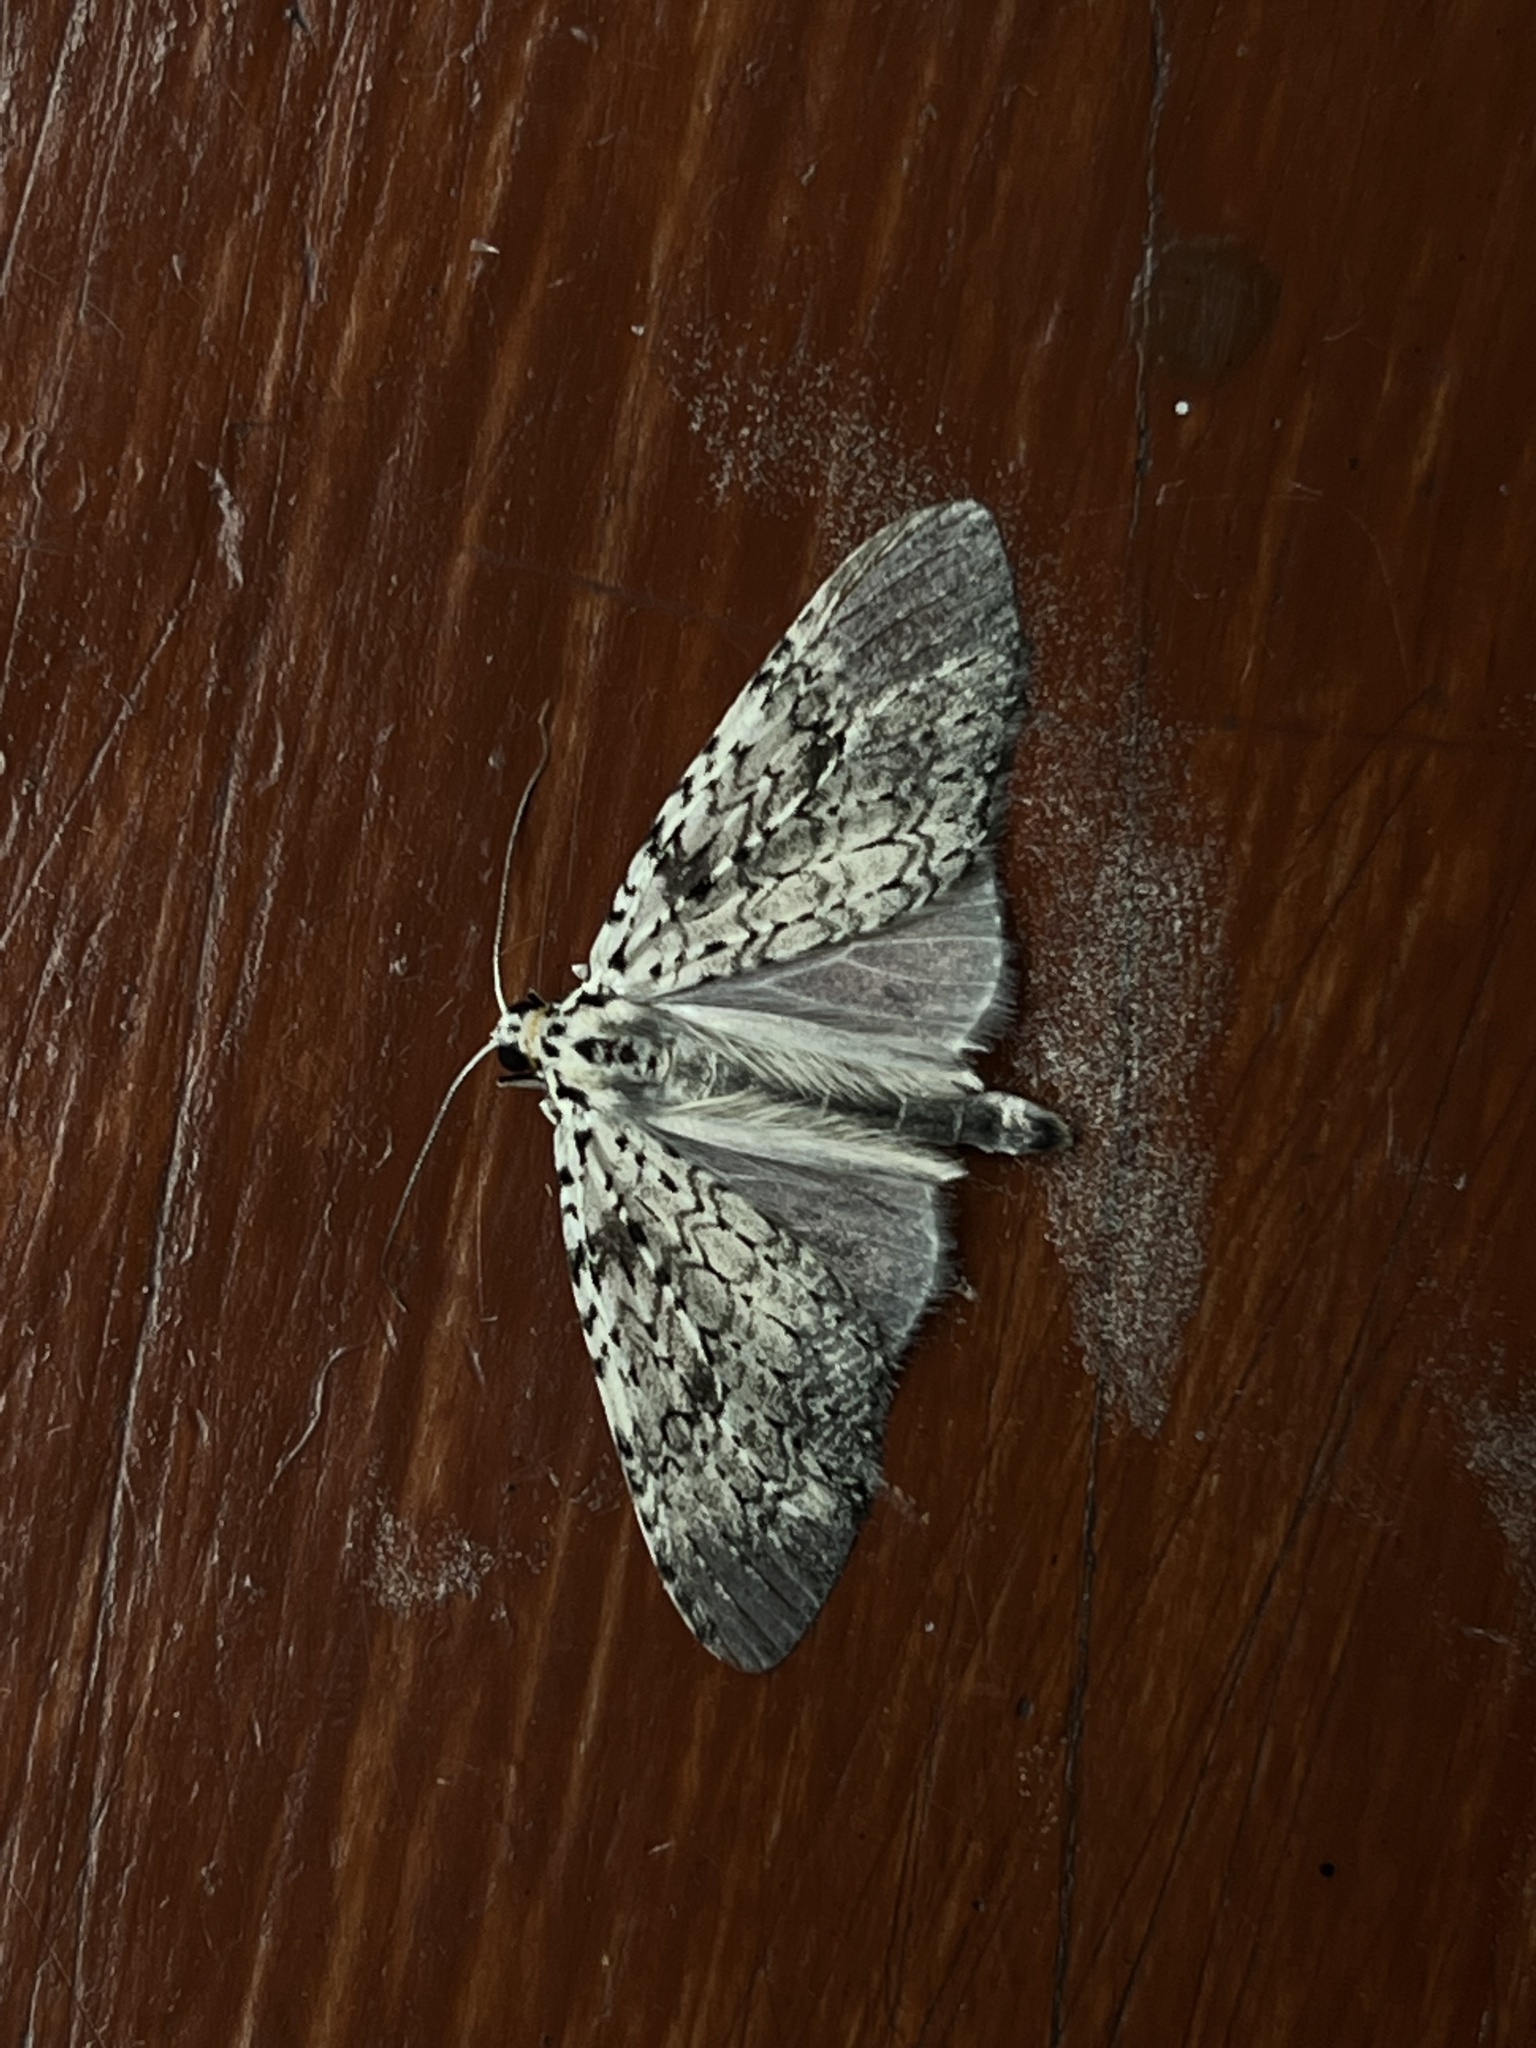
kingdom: Animalia
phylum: Arthropoda
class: Insecta
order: Lepidoptera
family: Geometridae
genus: Graphidipus
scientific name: Graphidipus puncticulata
